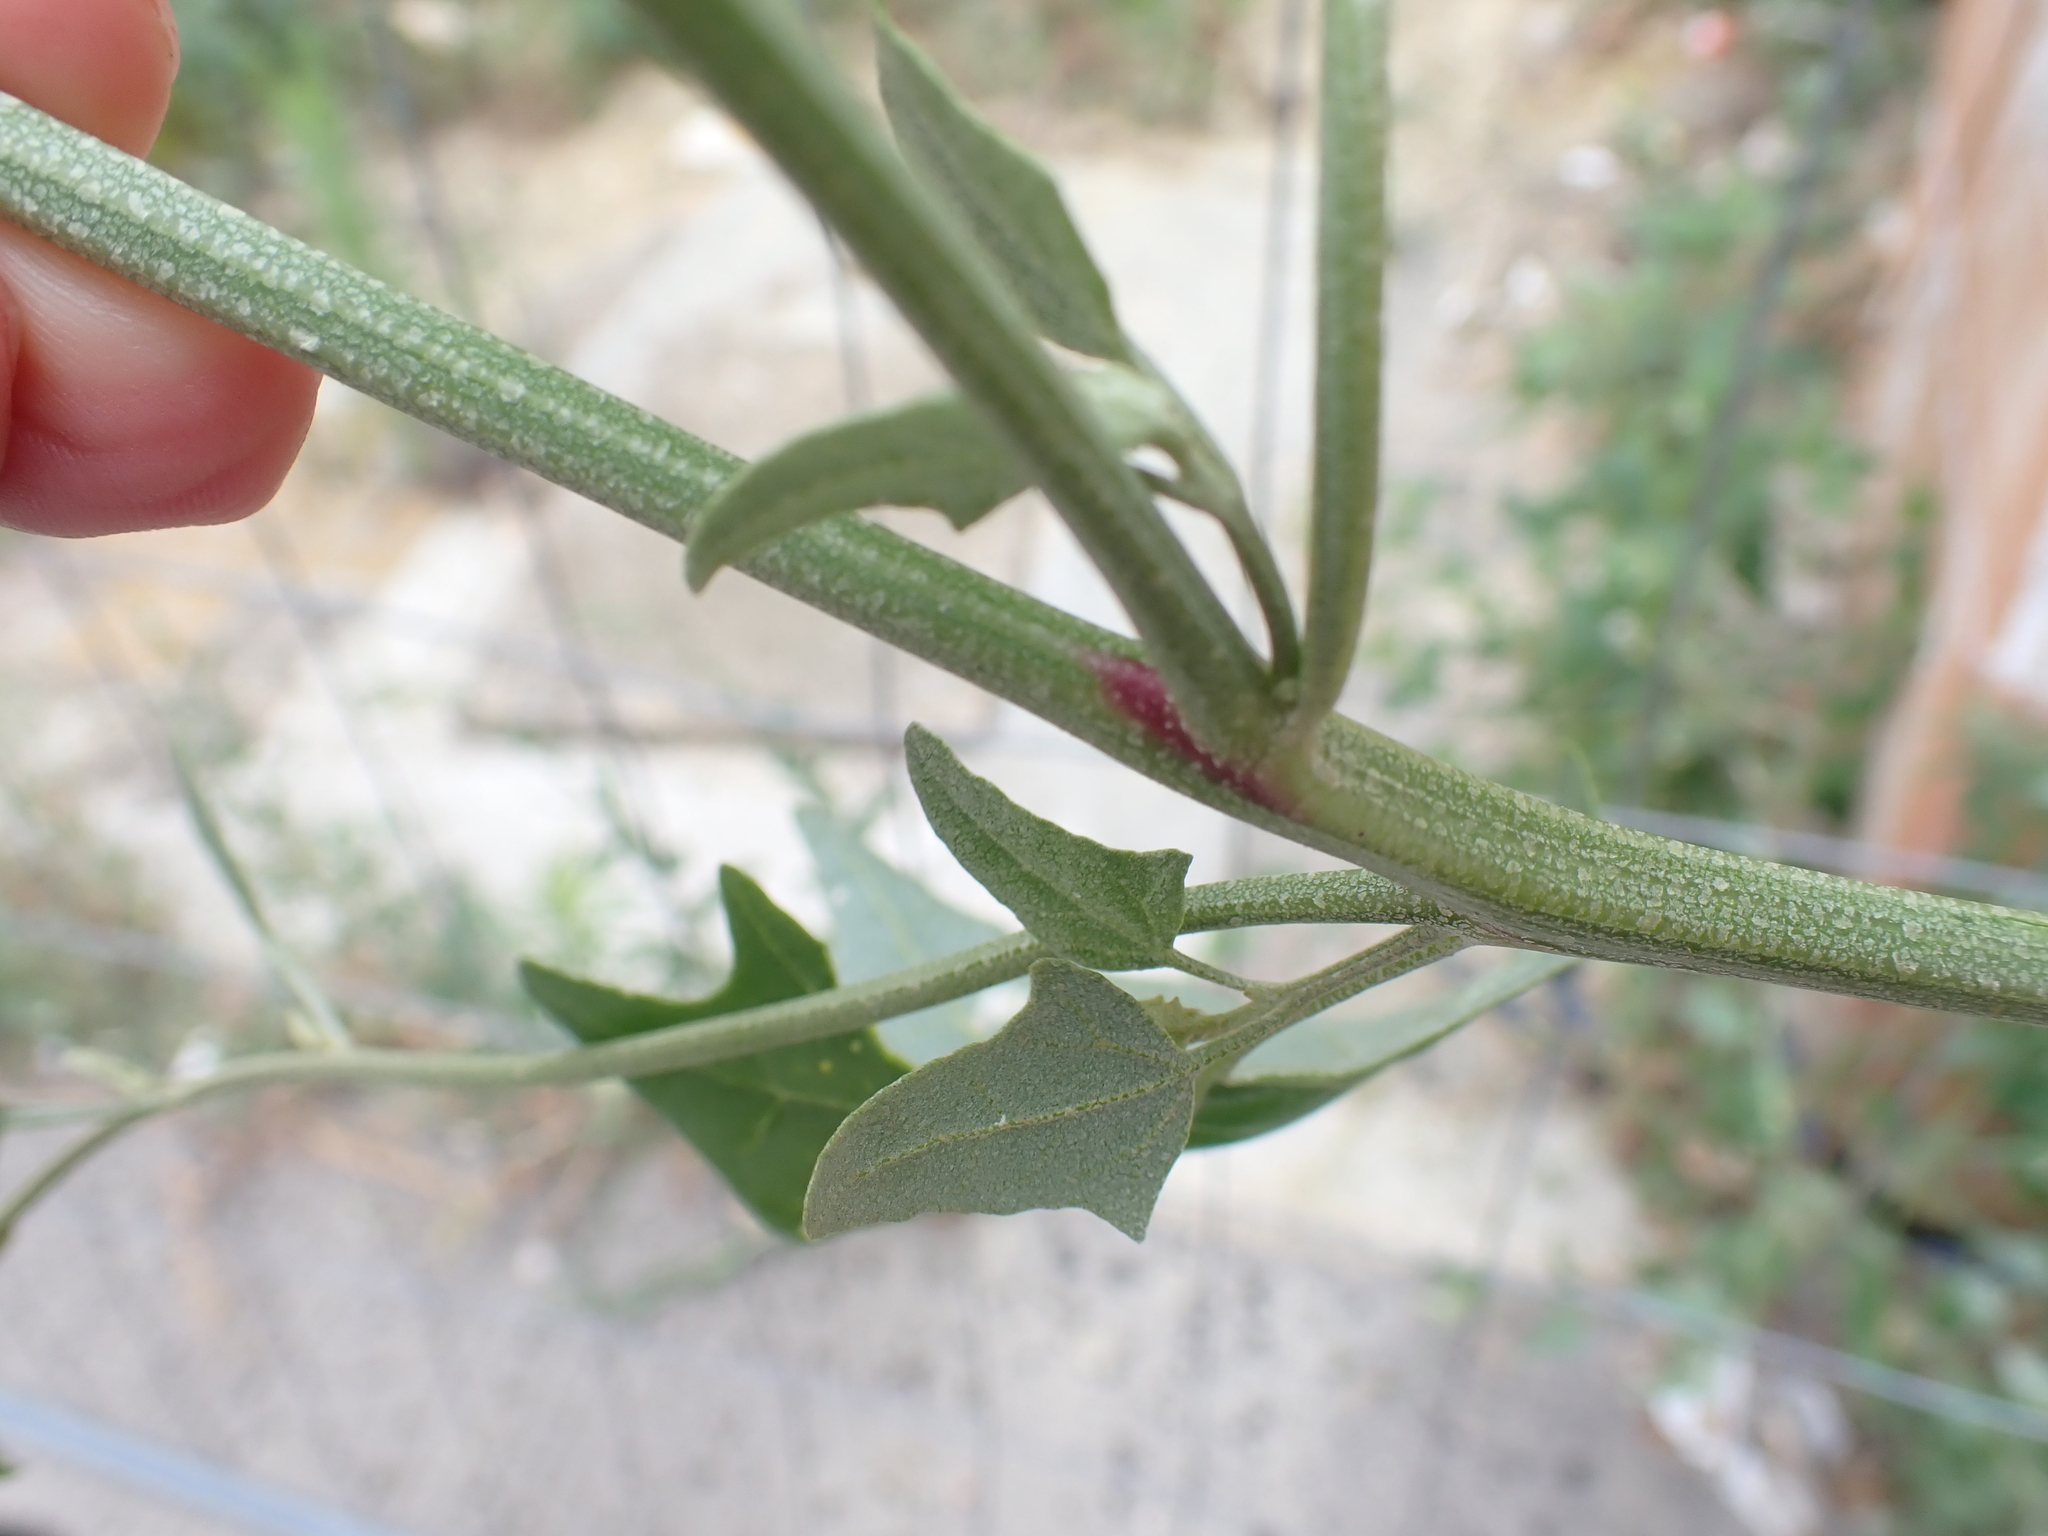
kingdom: Plantae
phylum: Tracheophyta
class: Magnoliopsida
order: Caryophyllales
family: Amaranthaceae
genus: Atriplex
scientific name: Atriplex micrantha
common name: Twoscale saltbush
